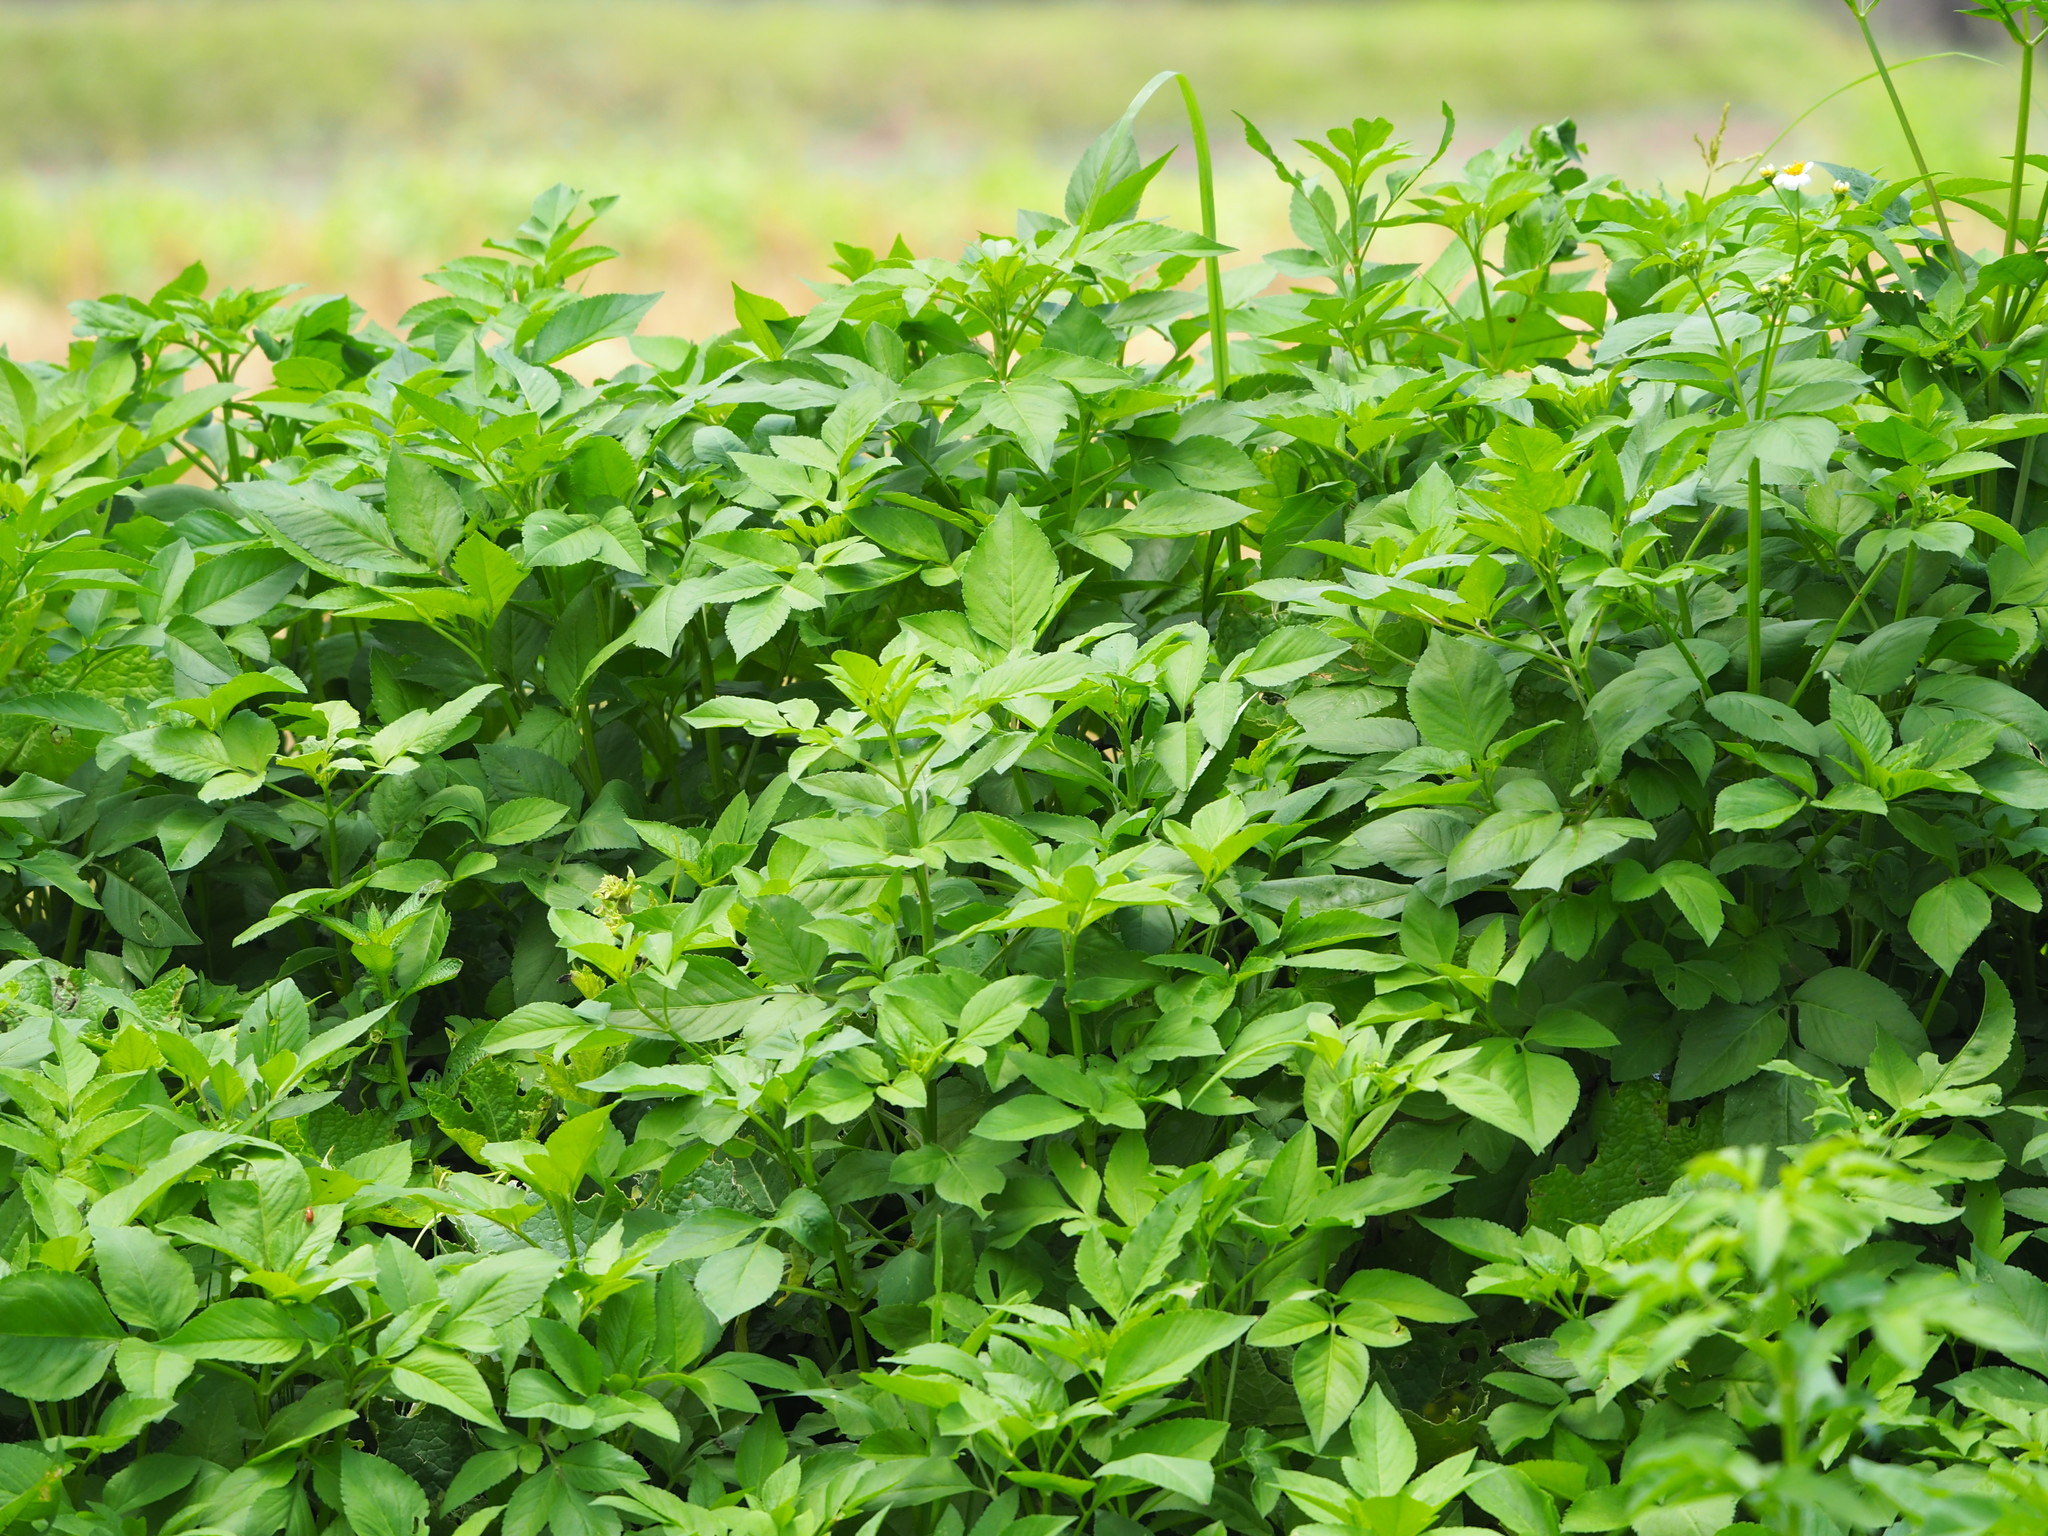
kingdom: Plantae
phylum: Tracheophyta
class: Magnoliopsida
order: Asterales
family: Asteraceae
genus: Bidens
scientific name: Bidens alba
